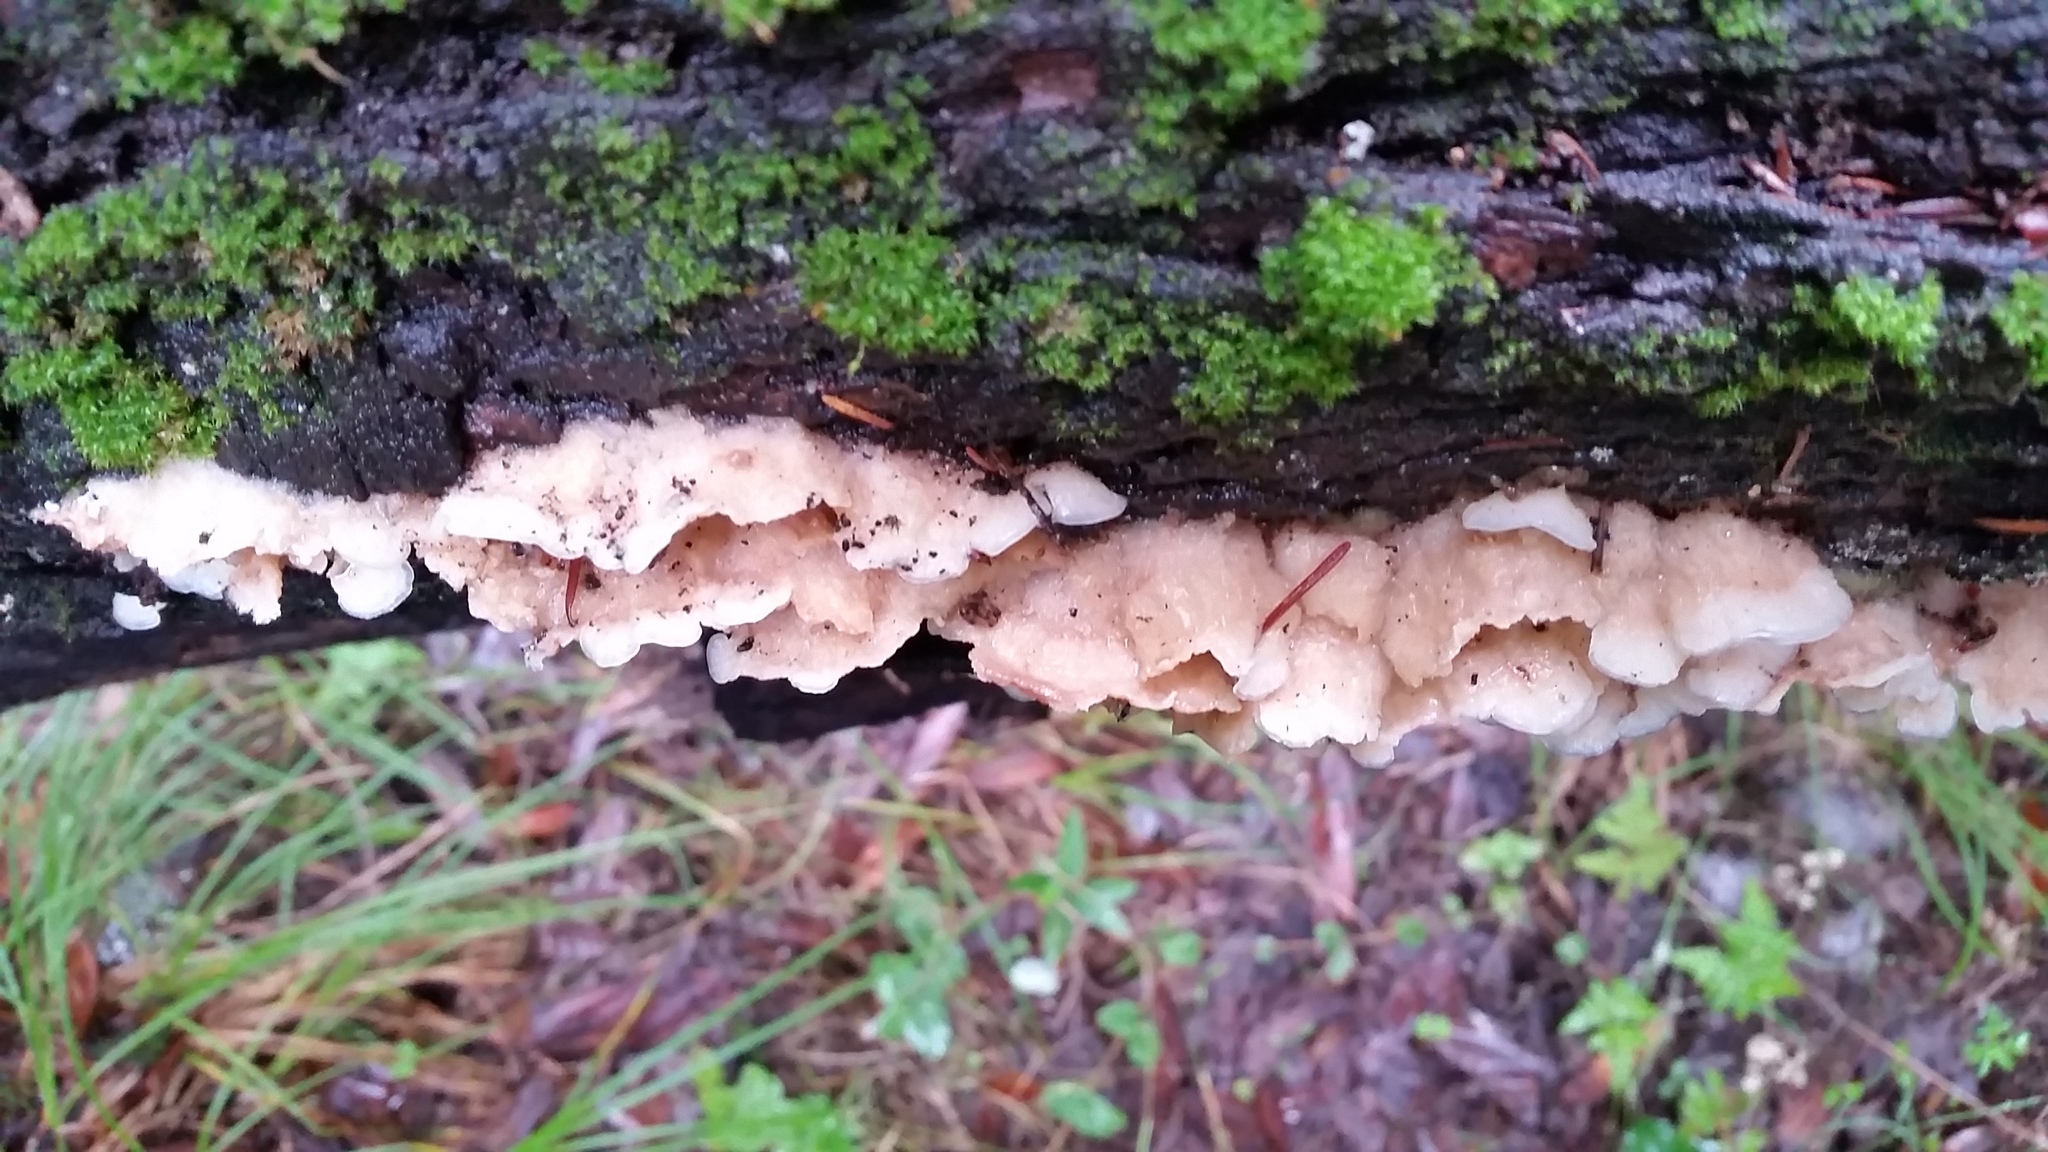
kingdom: Fungi
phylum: Basidiomycota
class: Agaricomycetes
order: Polyporales
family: Meruliaceae
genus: Phlebia
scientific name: Phlebia tremellosa
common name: Jelly rot
